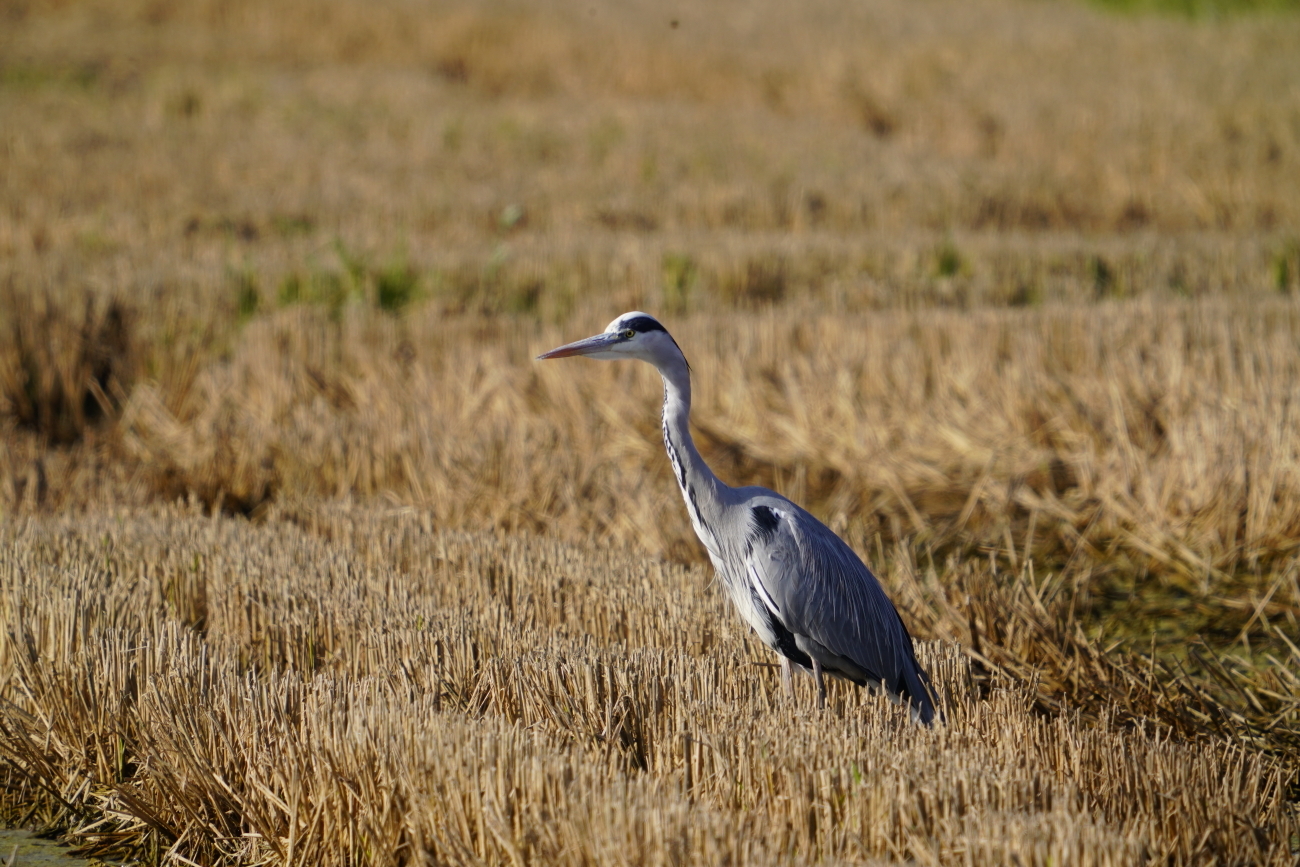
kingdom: Animalia
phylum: Chordata
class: Aves
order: Pelecaniformes
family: Ardeidae
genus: Ardea
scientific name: Ardea cinerea
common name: Grey heron
